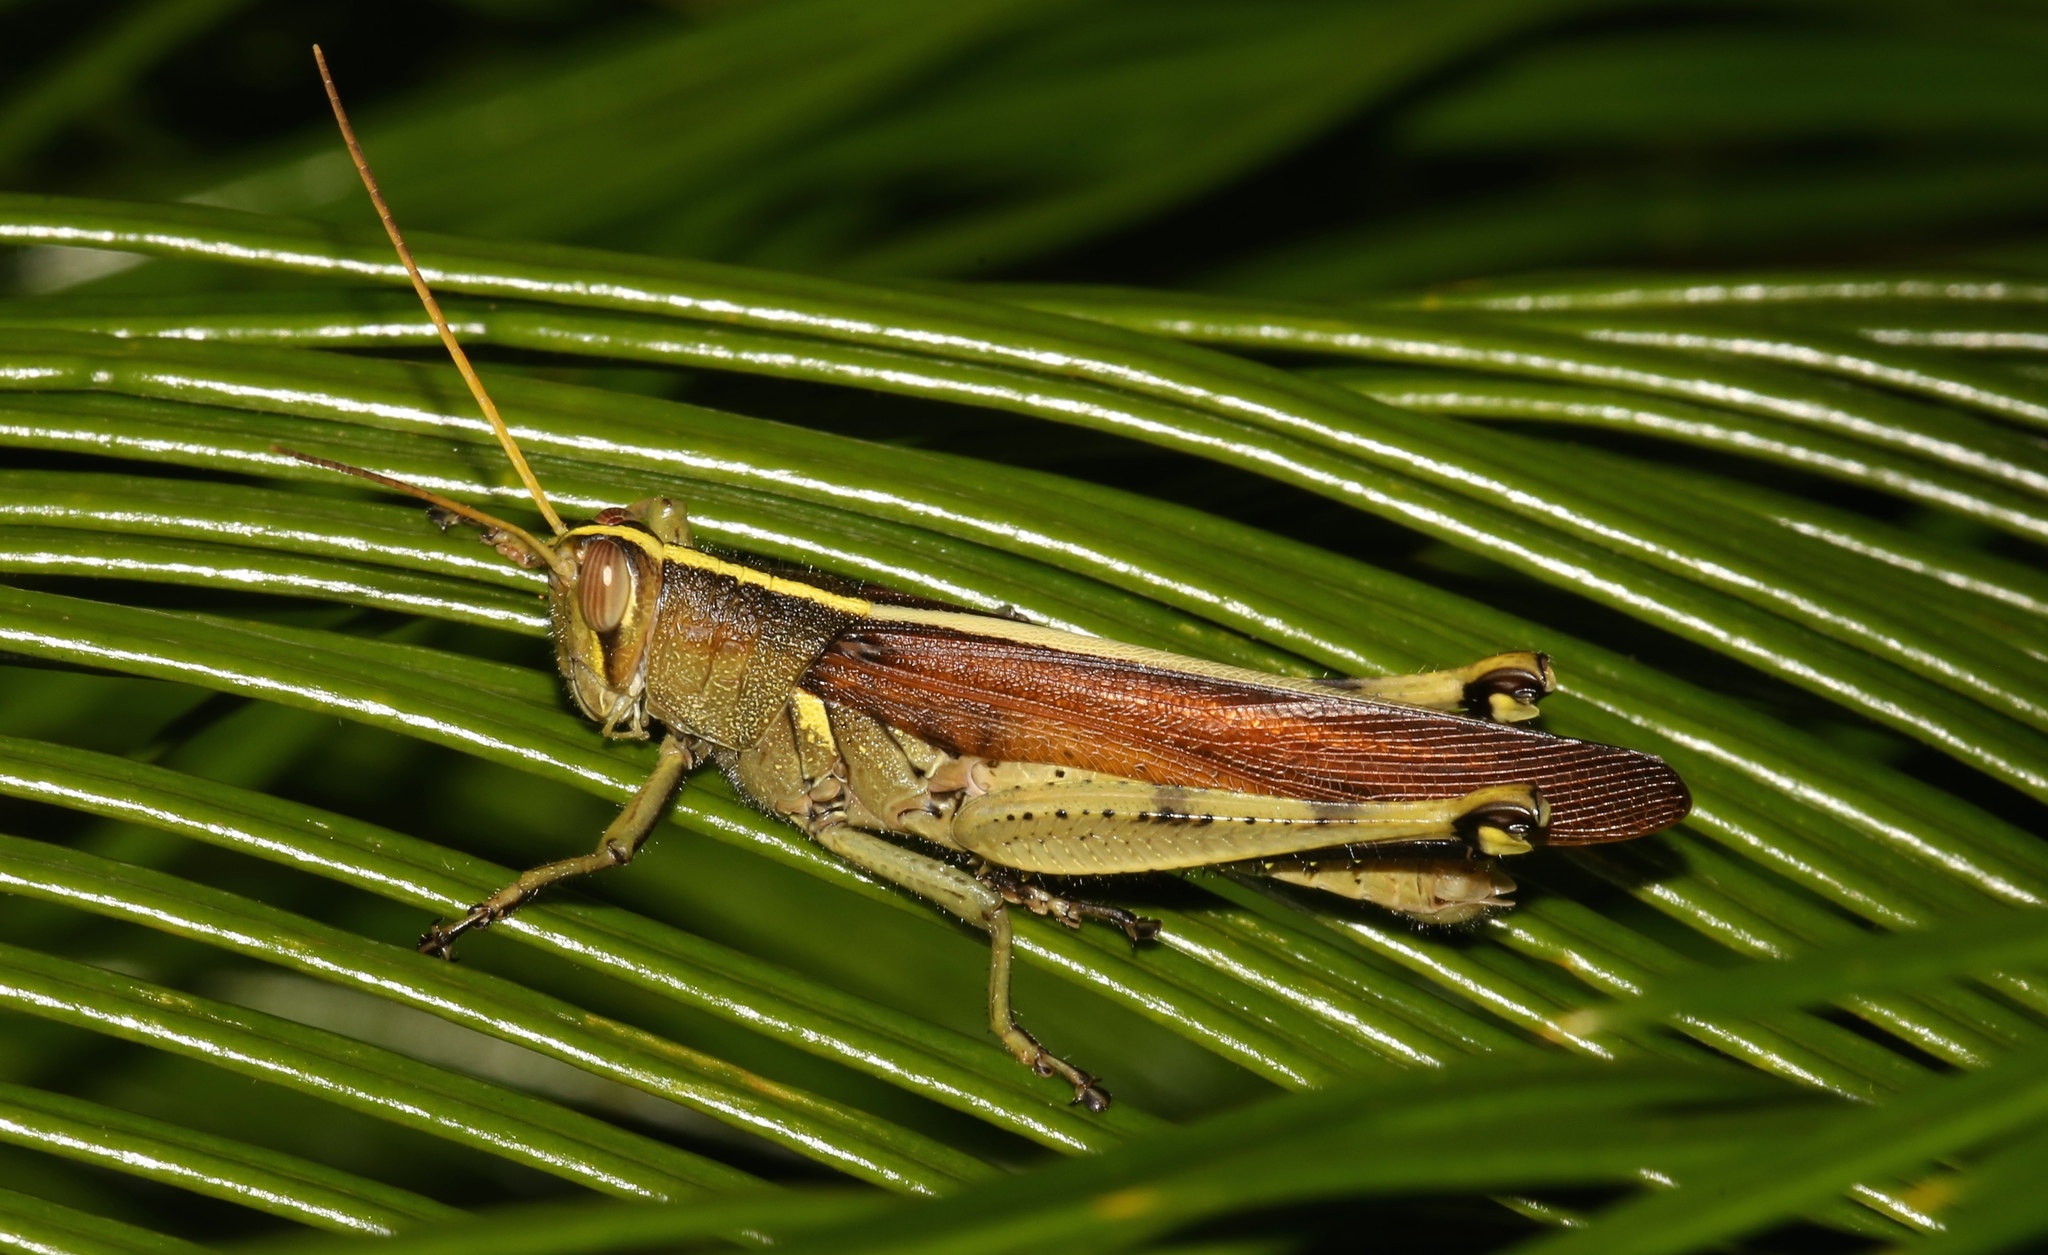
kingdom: Animalia
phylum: Arthropoda
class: Insecta
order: Orthoptera
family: Acrididae
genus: Schistocerca
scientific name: Schistocerca obscura
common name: Obscure bird grasshopper
